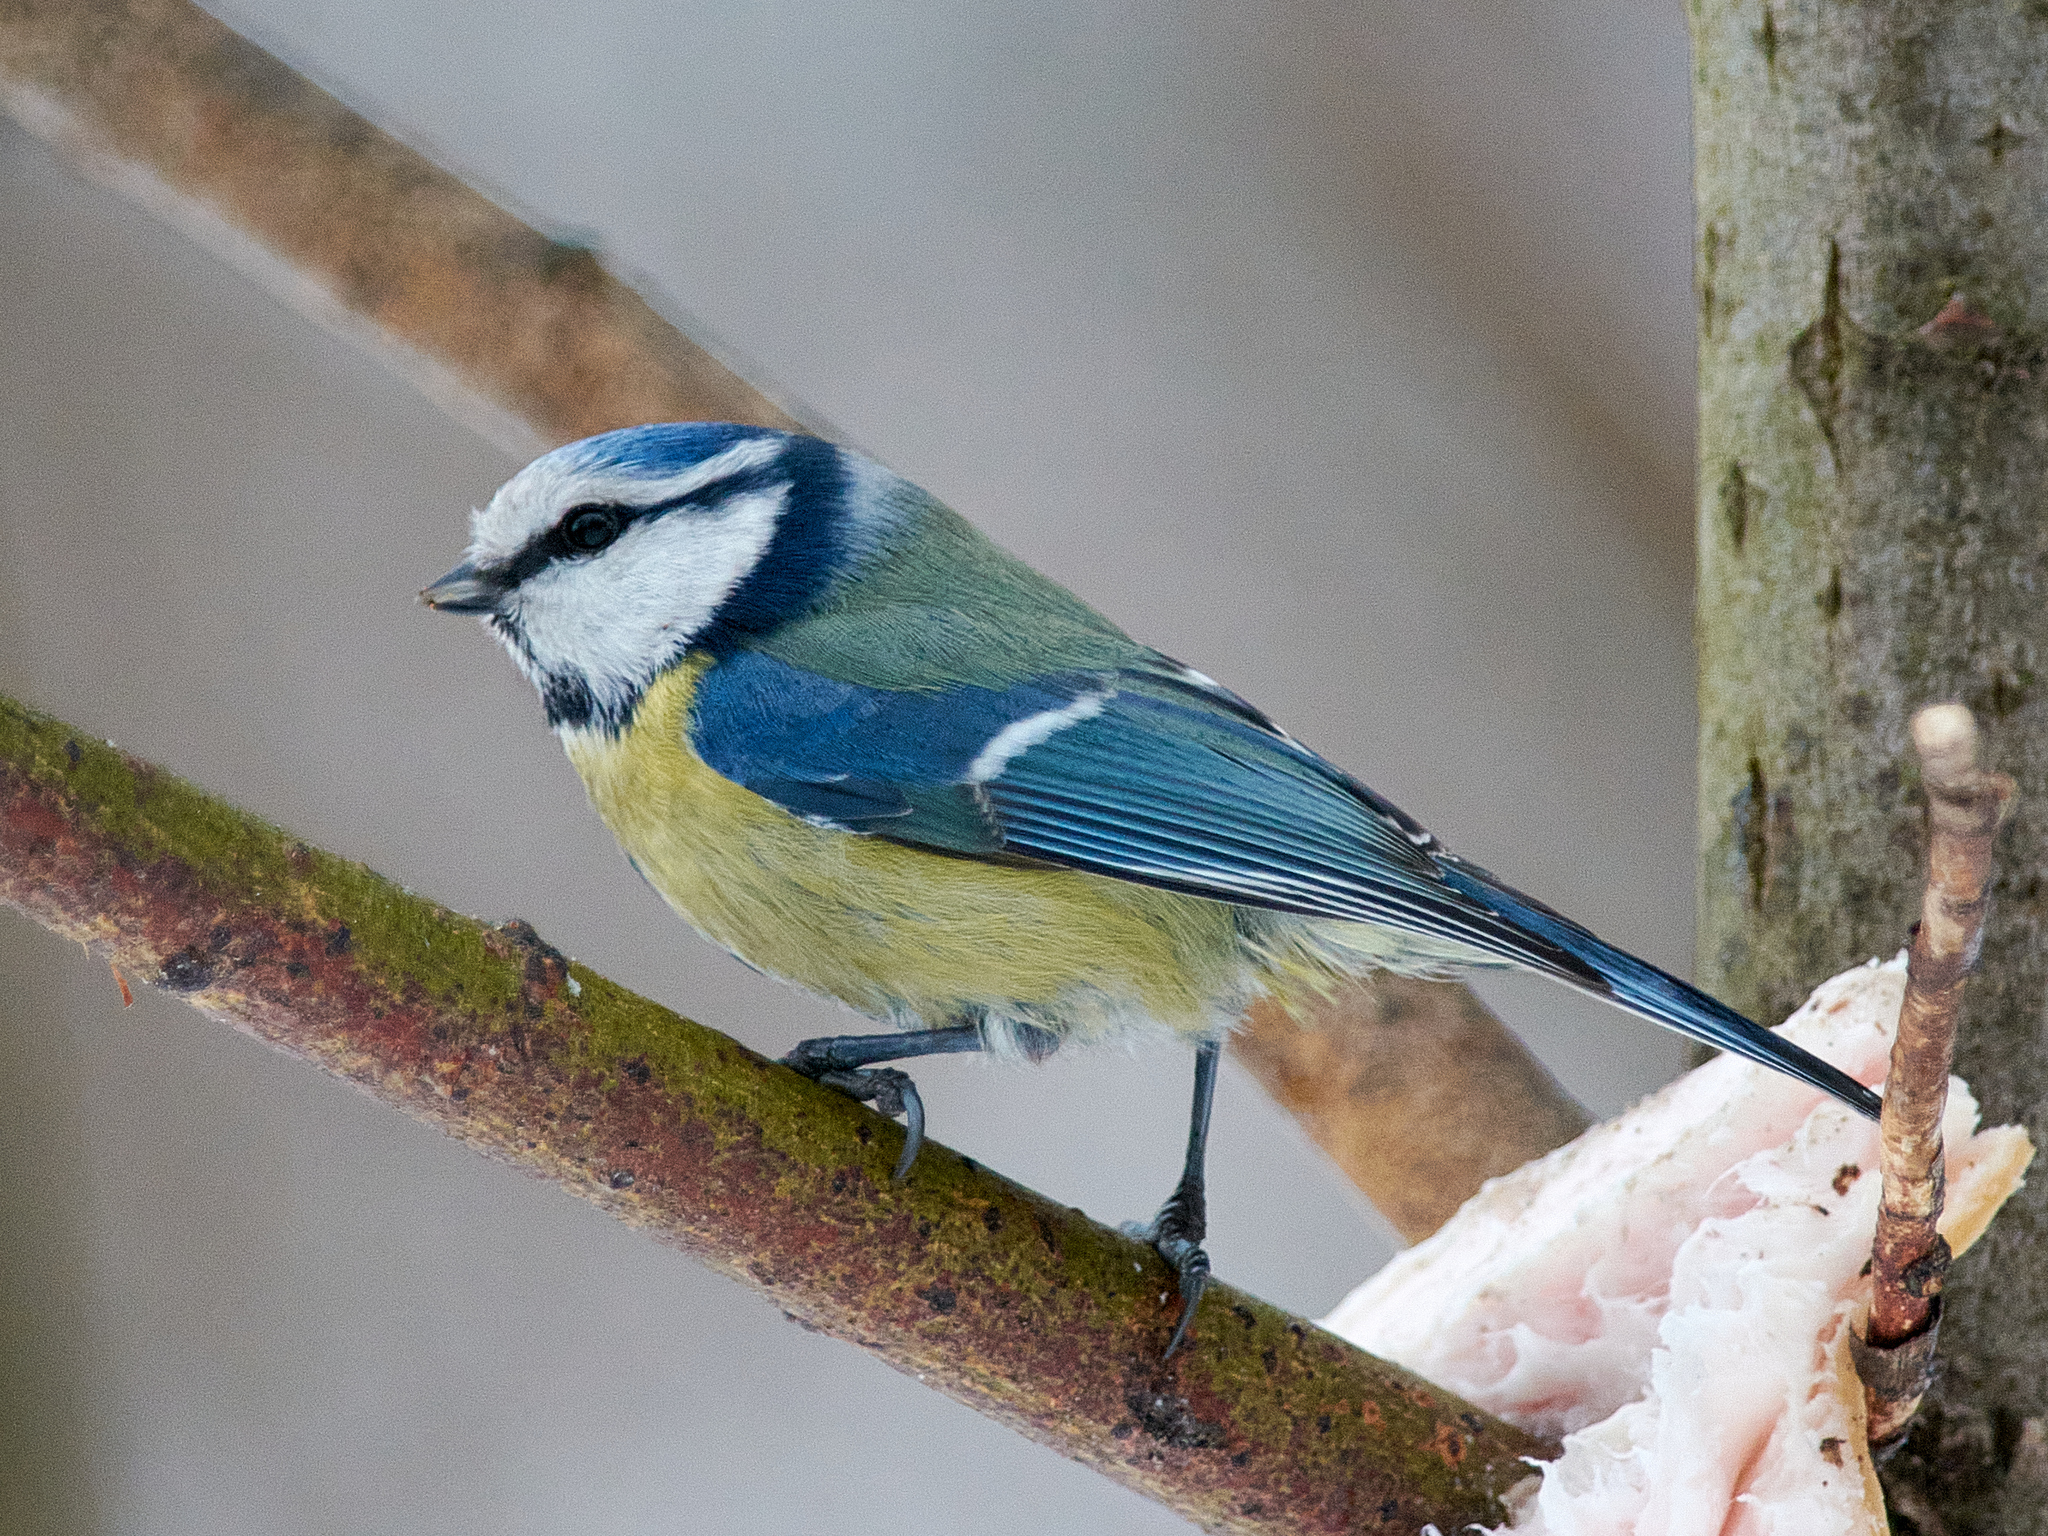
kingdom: Animalia
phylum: Chordata
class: Aves
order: Passeriformes
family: Paridae
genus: Cyanistes
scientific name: Cyanistes caeruleus
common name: Eurasian blue tit
